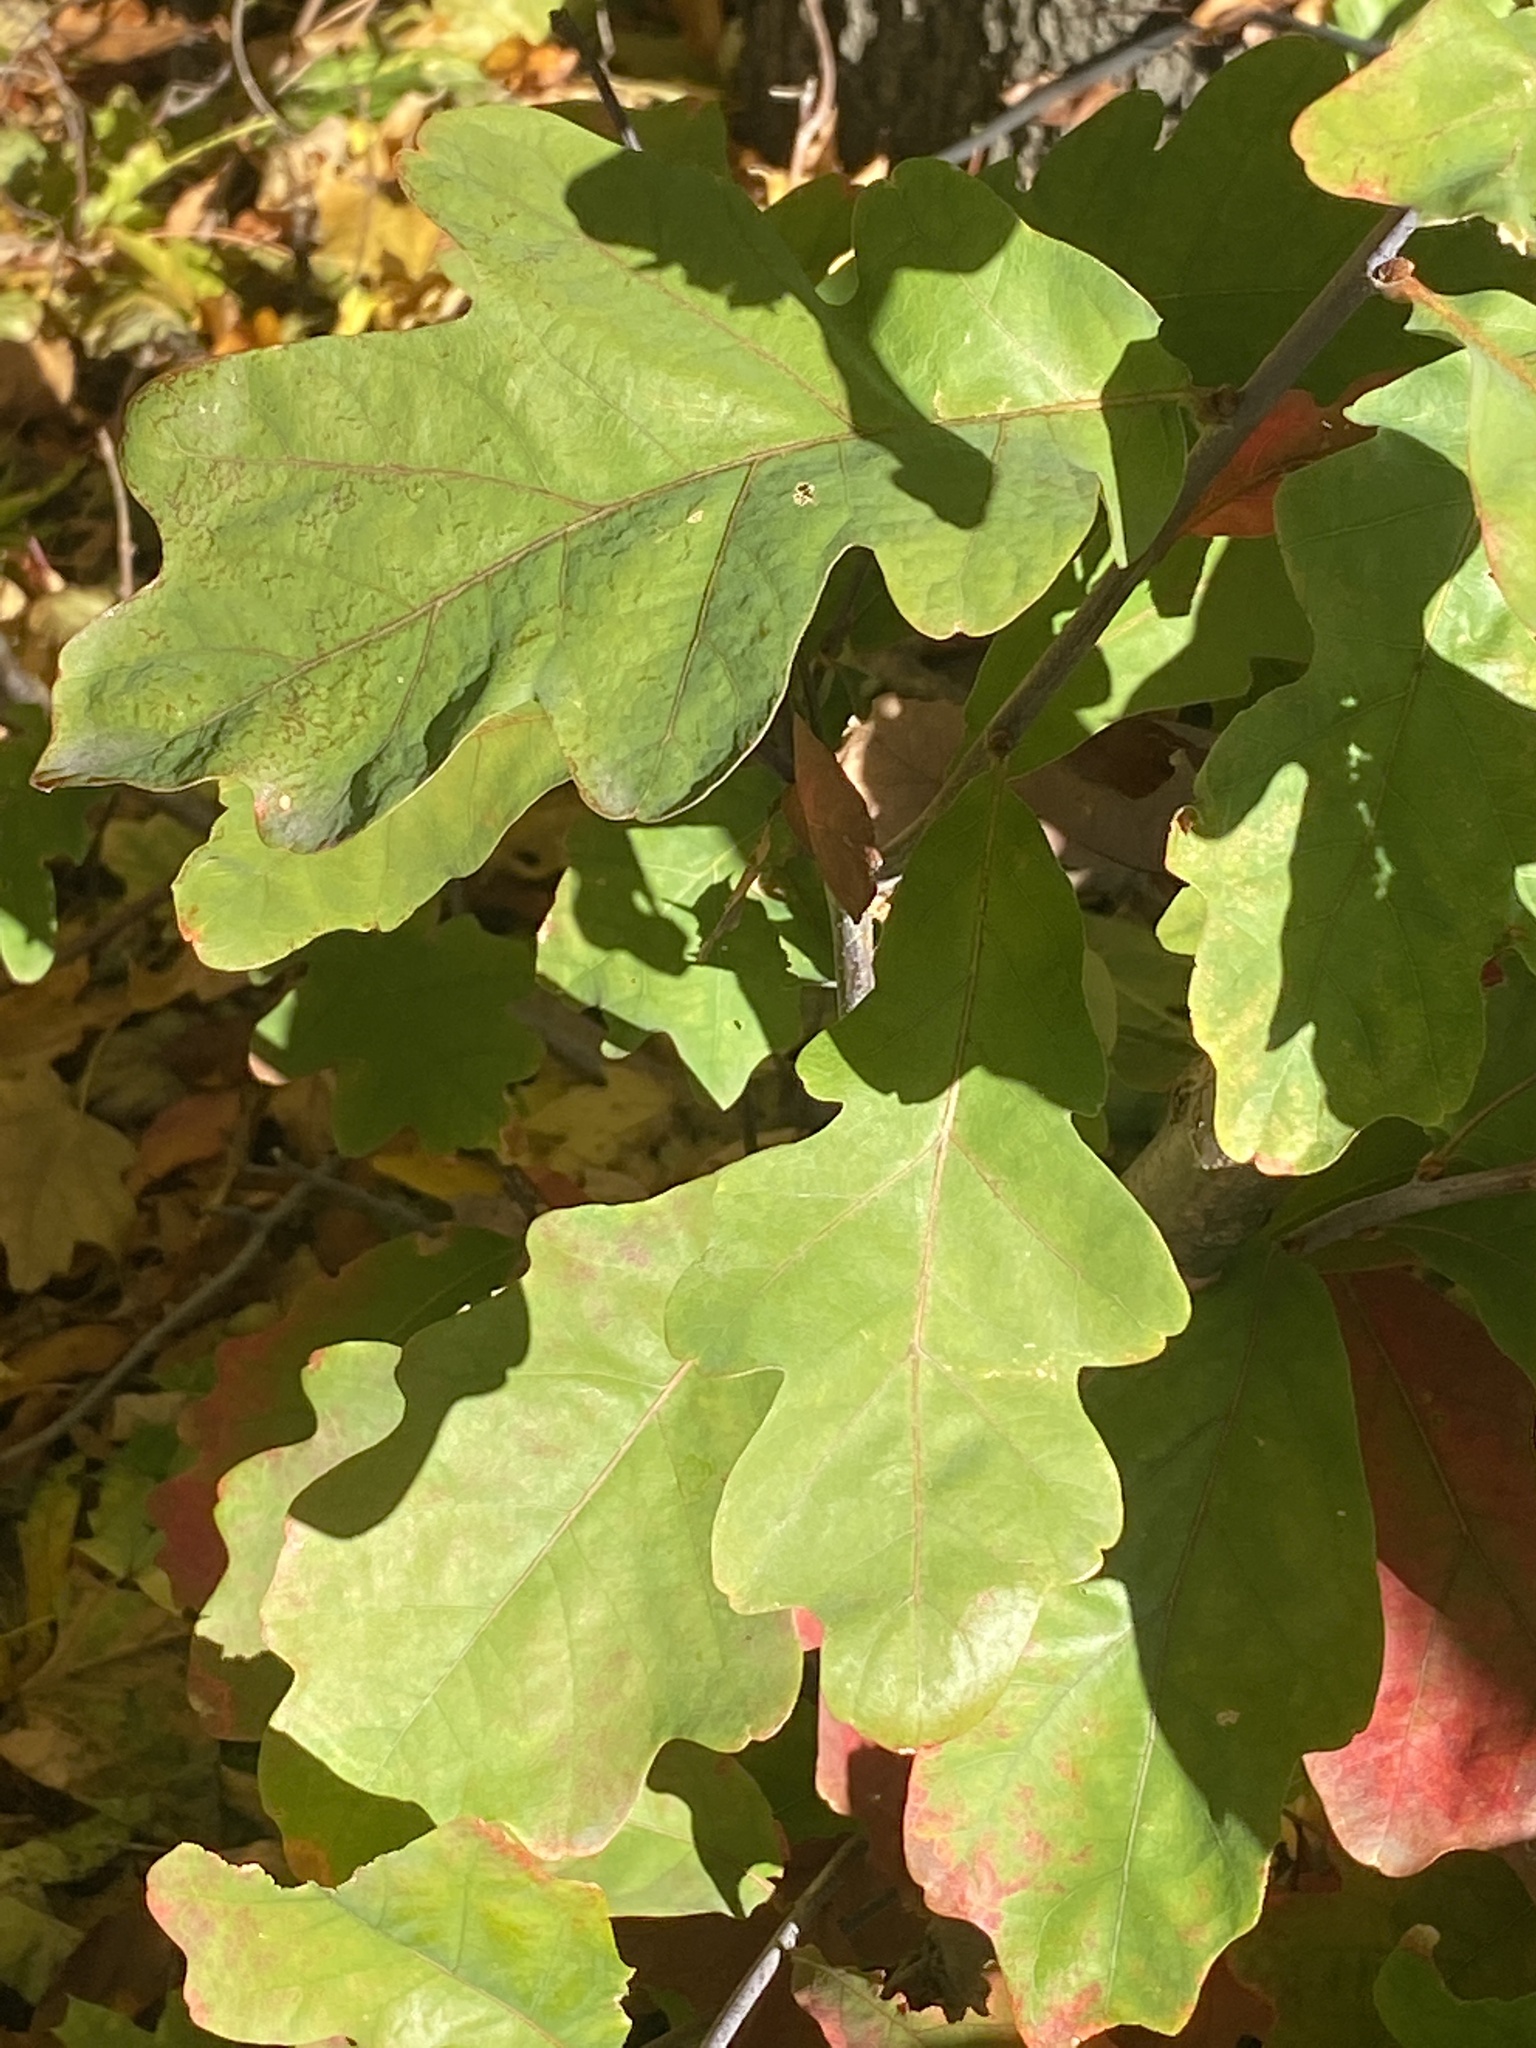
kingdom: Plantae
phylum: Tracheophyta
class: Magnoliopsida
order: Fagales
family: Fagaceae
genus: Quercus
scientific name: Quercus alba
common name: White oak
